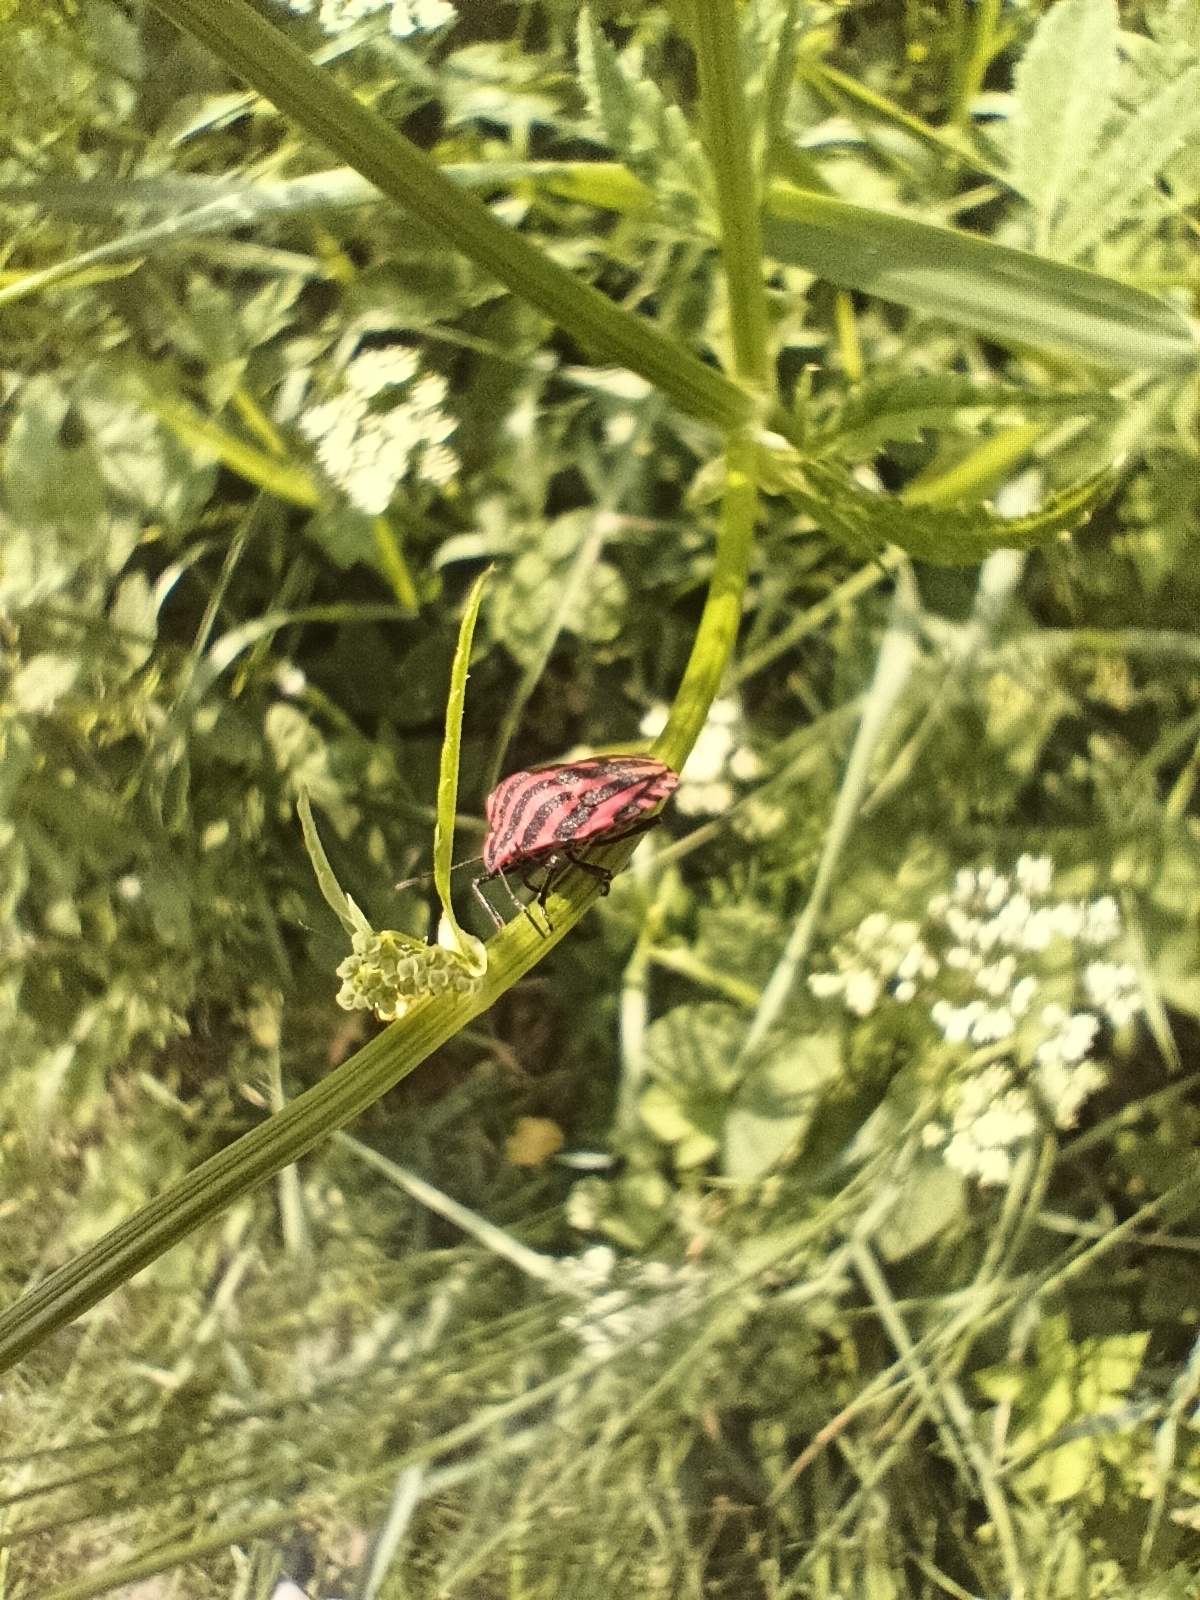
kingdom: Animalia
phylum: Arthropoda
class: Insecta
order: Hemiptera
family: Pentatomidae
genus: Graphosoma
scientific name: Graphosoma italicum
